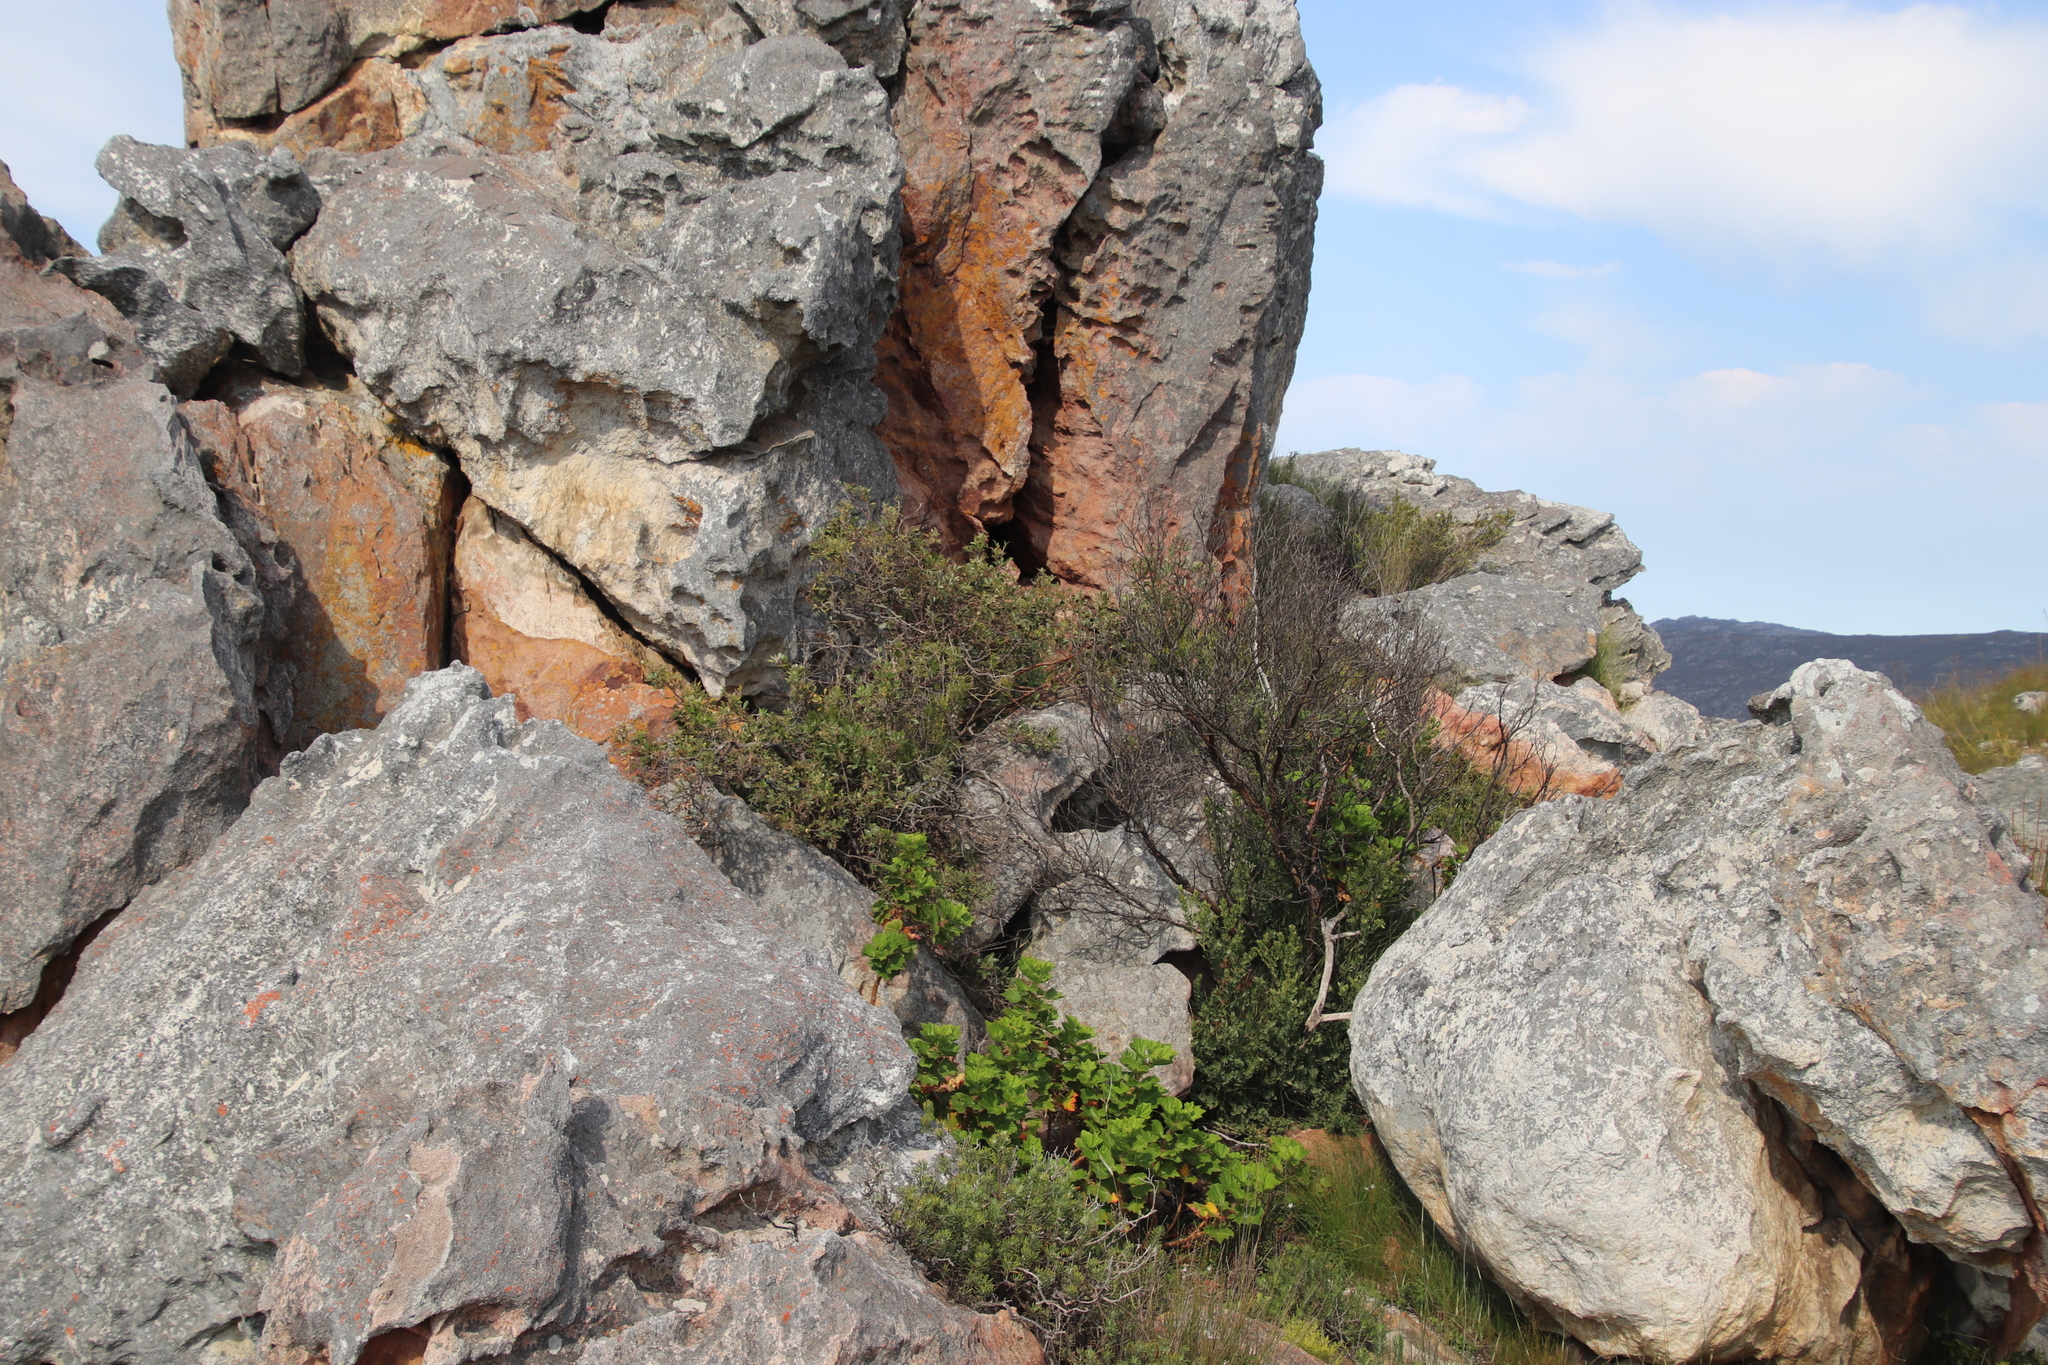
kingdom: Plantae
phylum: Tracheophyta
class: Magnoliopsida
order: Sapindales
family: Anacardiaceae
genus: Searsia
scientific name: Searsia tomentosa
